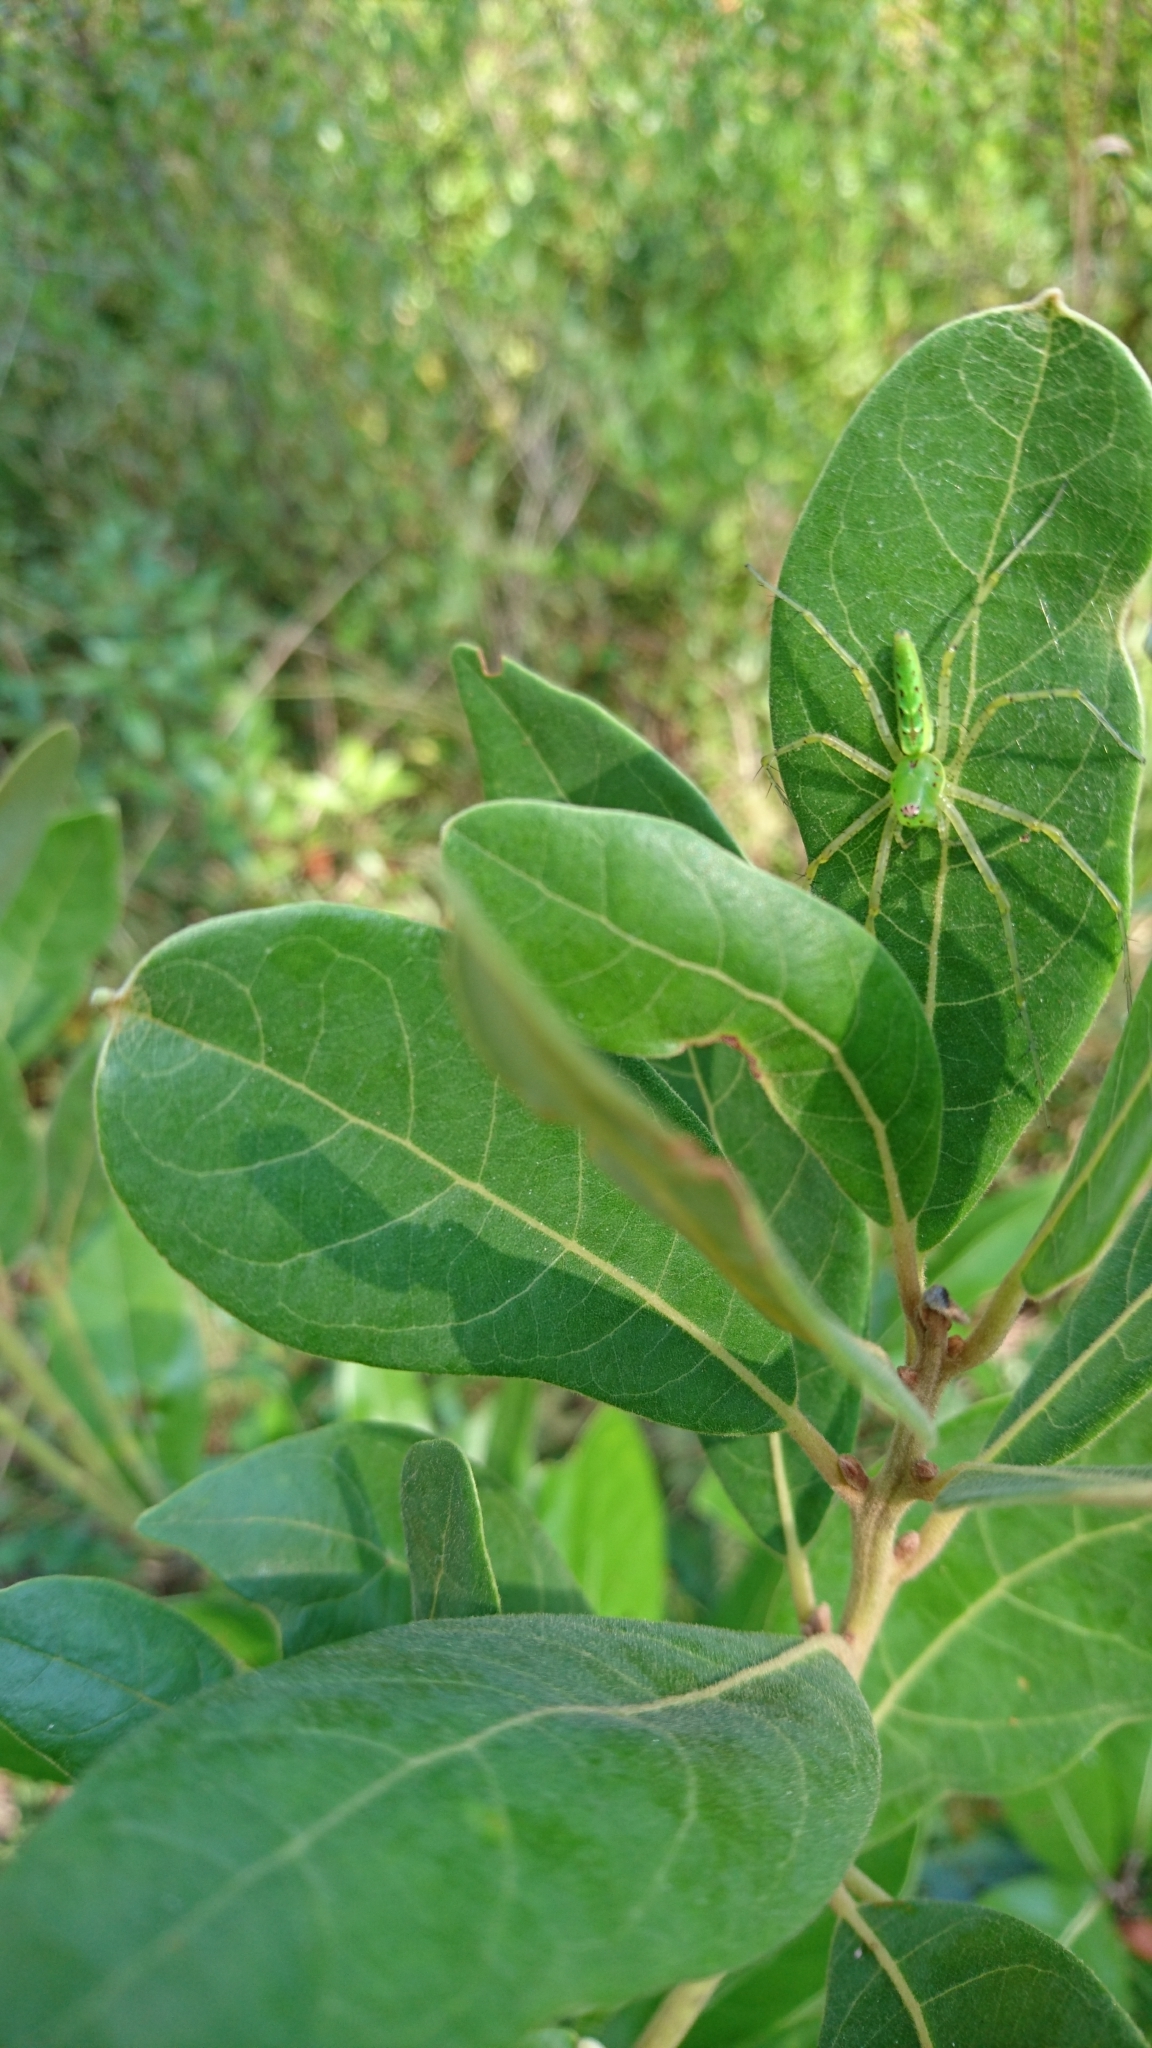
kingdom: Animalia
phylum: Arthropoda
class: Arachnida
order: Araneae
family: Oxyopidae
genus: Peucetia
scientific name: Peucetia viridans
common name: Lynx spiders
